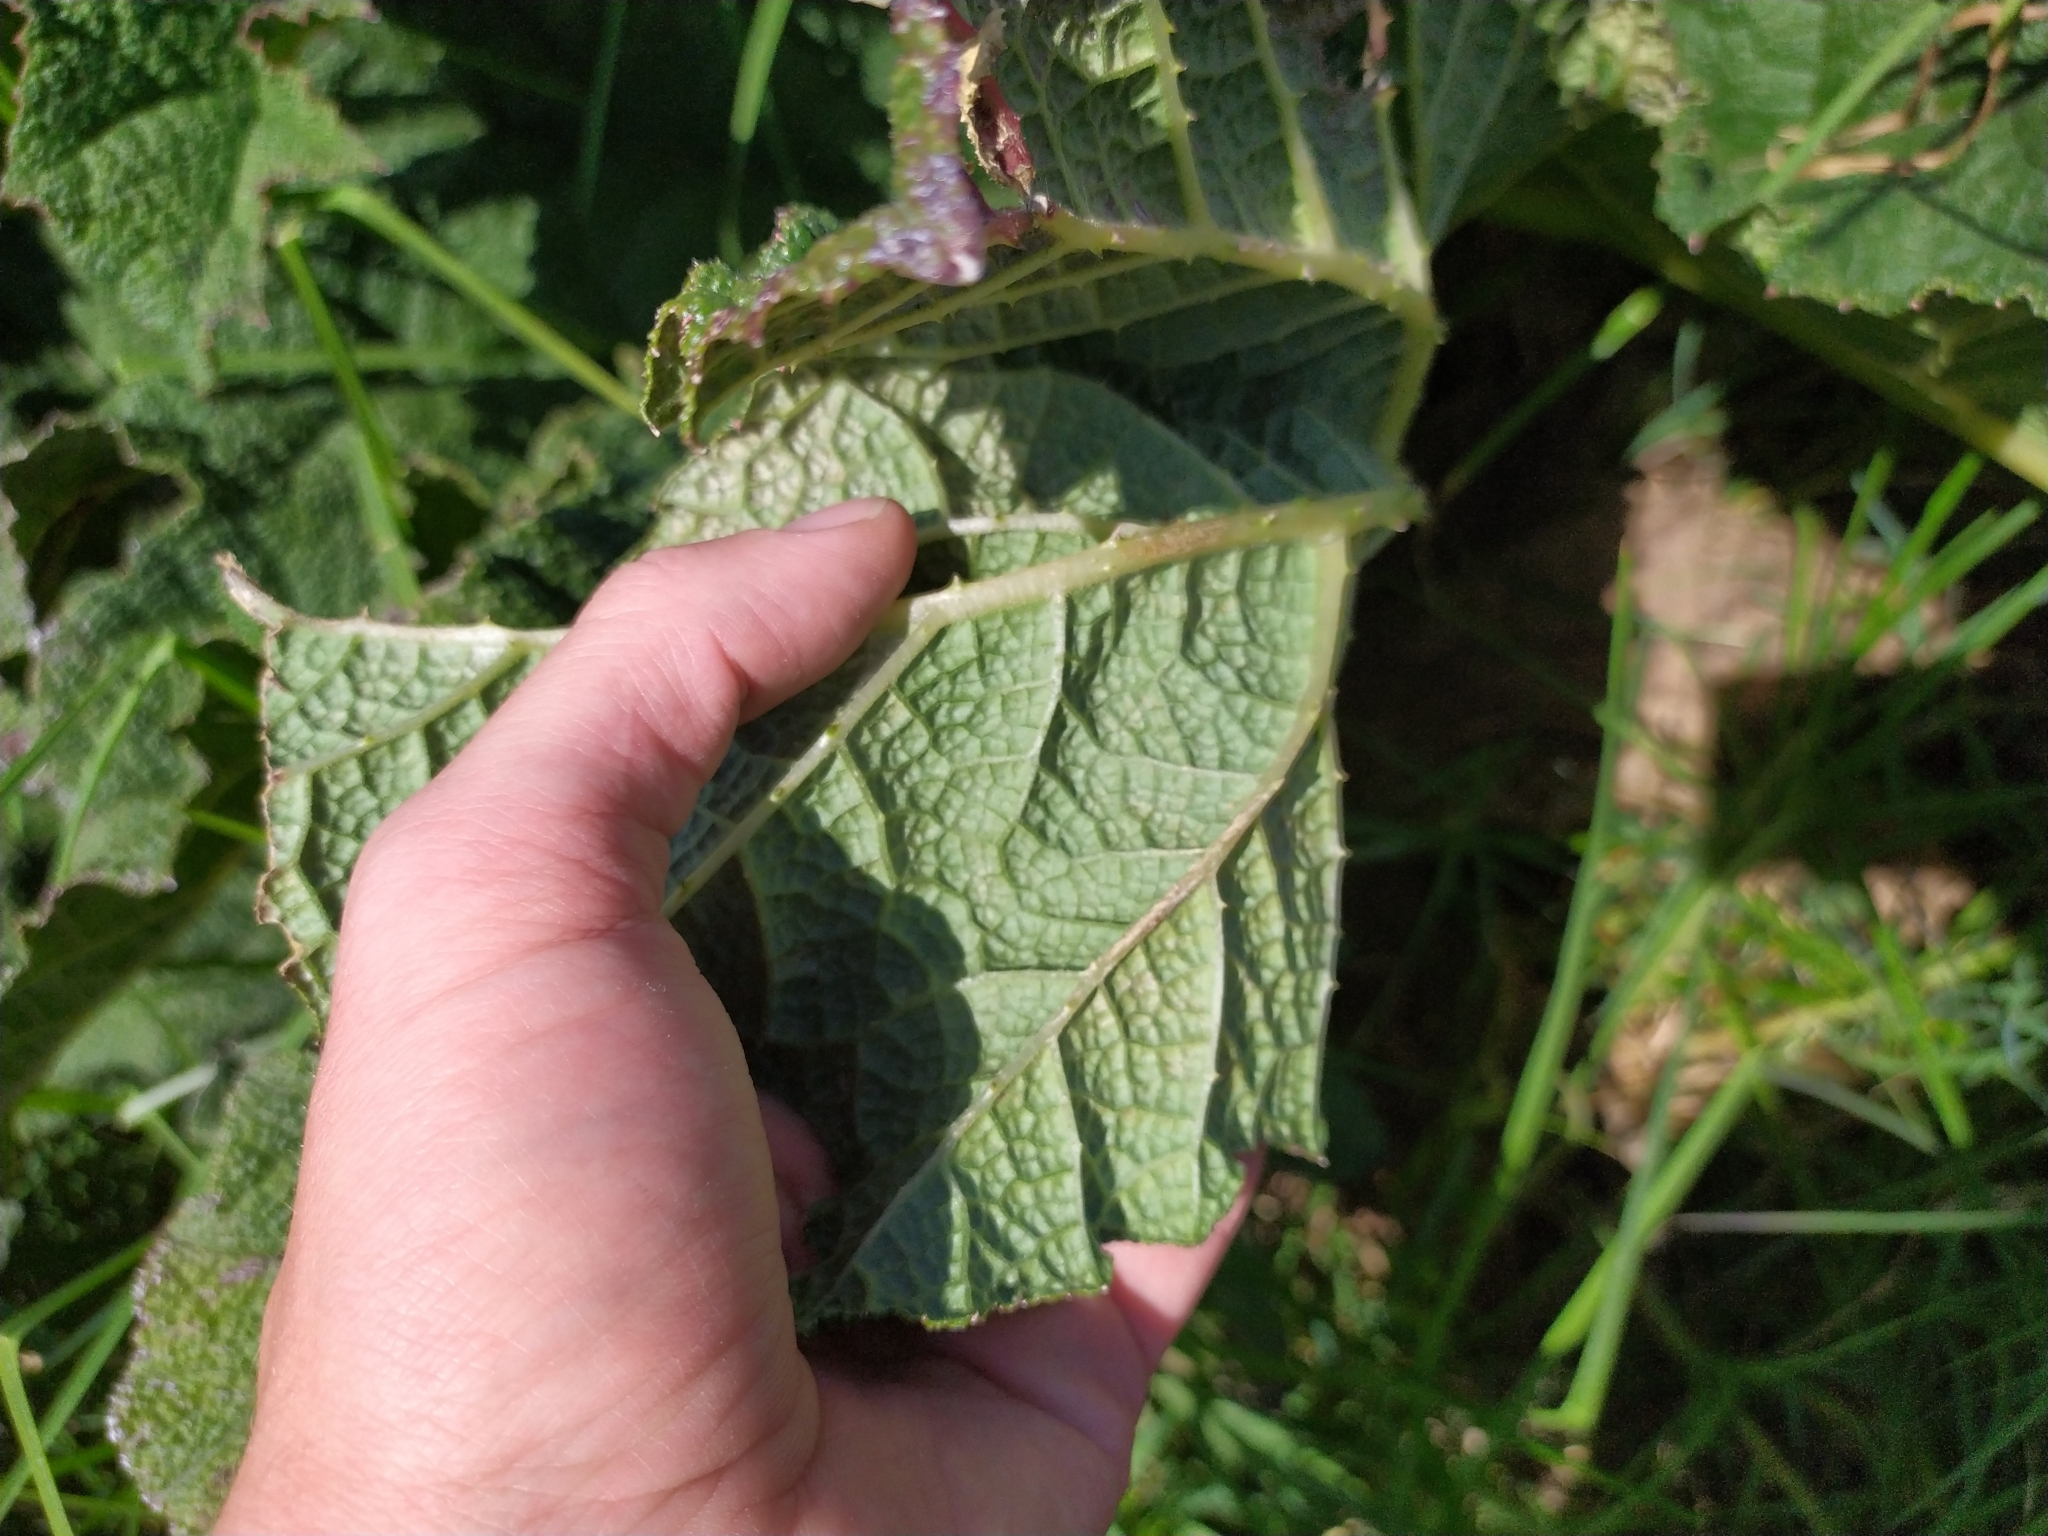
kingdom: Plantae
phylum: Tracheophyta
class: Magnoliopsida
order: Gunnerales
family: Gunneraceae
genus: Gunnera
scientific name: Gunnera tinctoria
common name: Giant-rhubarb
